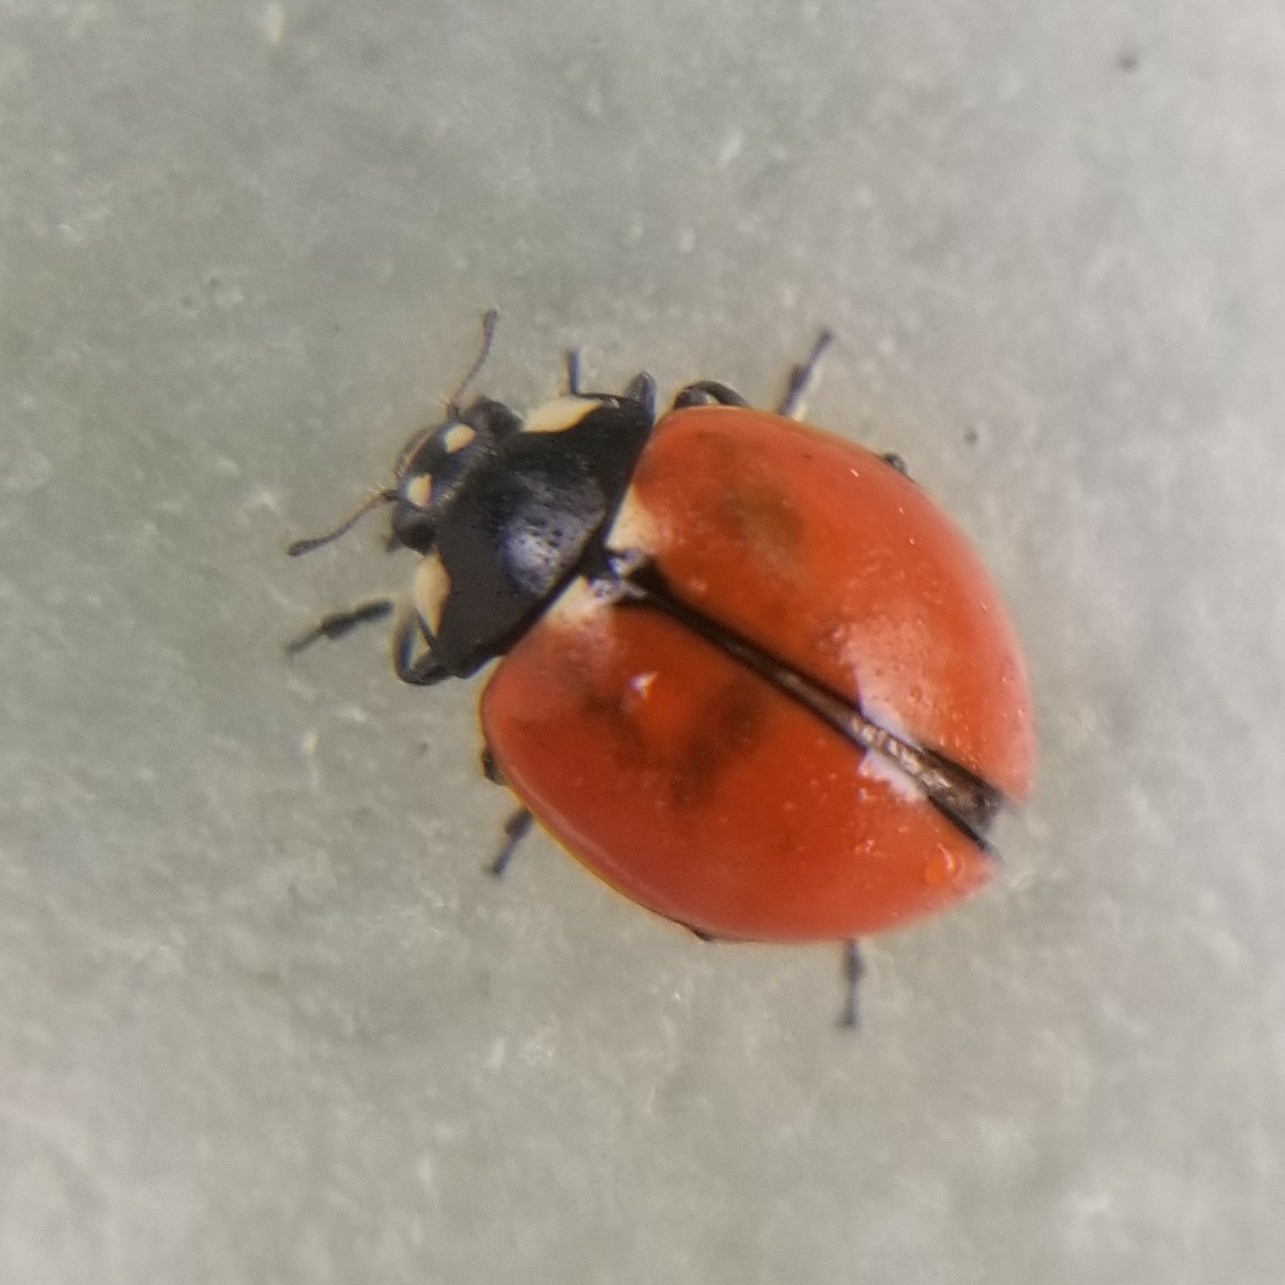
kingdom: Animalia
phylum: Arthropoda
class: Insecta
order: Coleoptera
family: Coccinellidae
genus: Coccinella
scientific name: Coccinella californica
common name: Lady beetle
